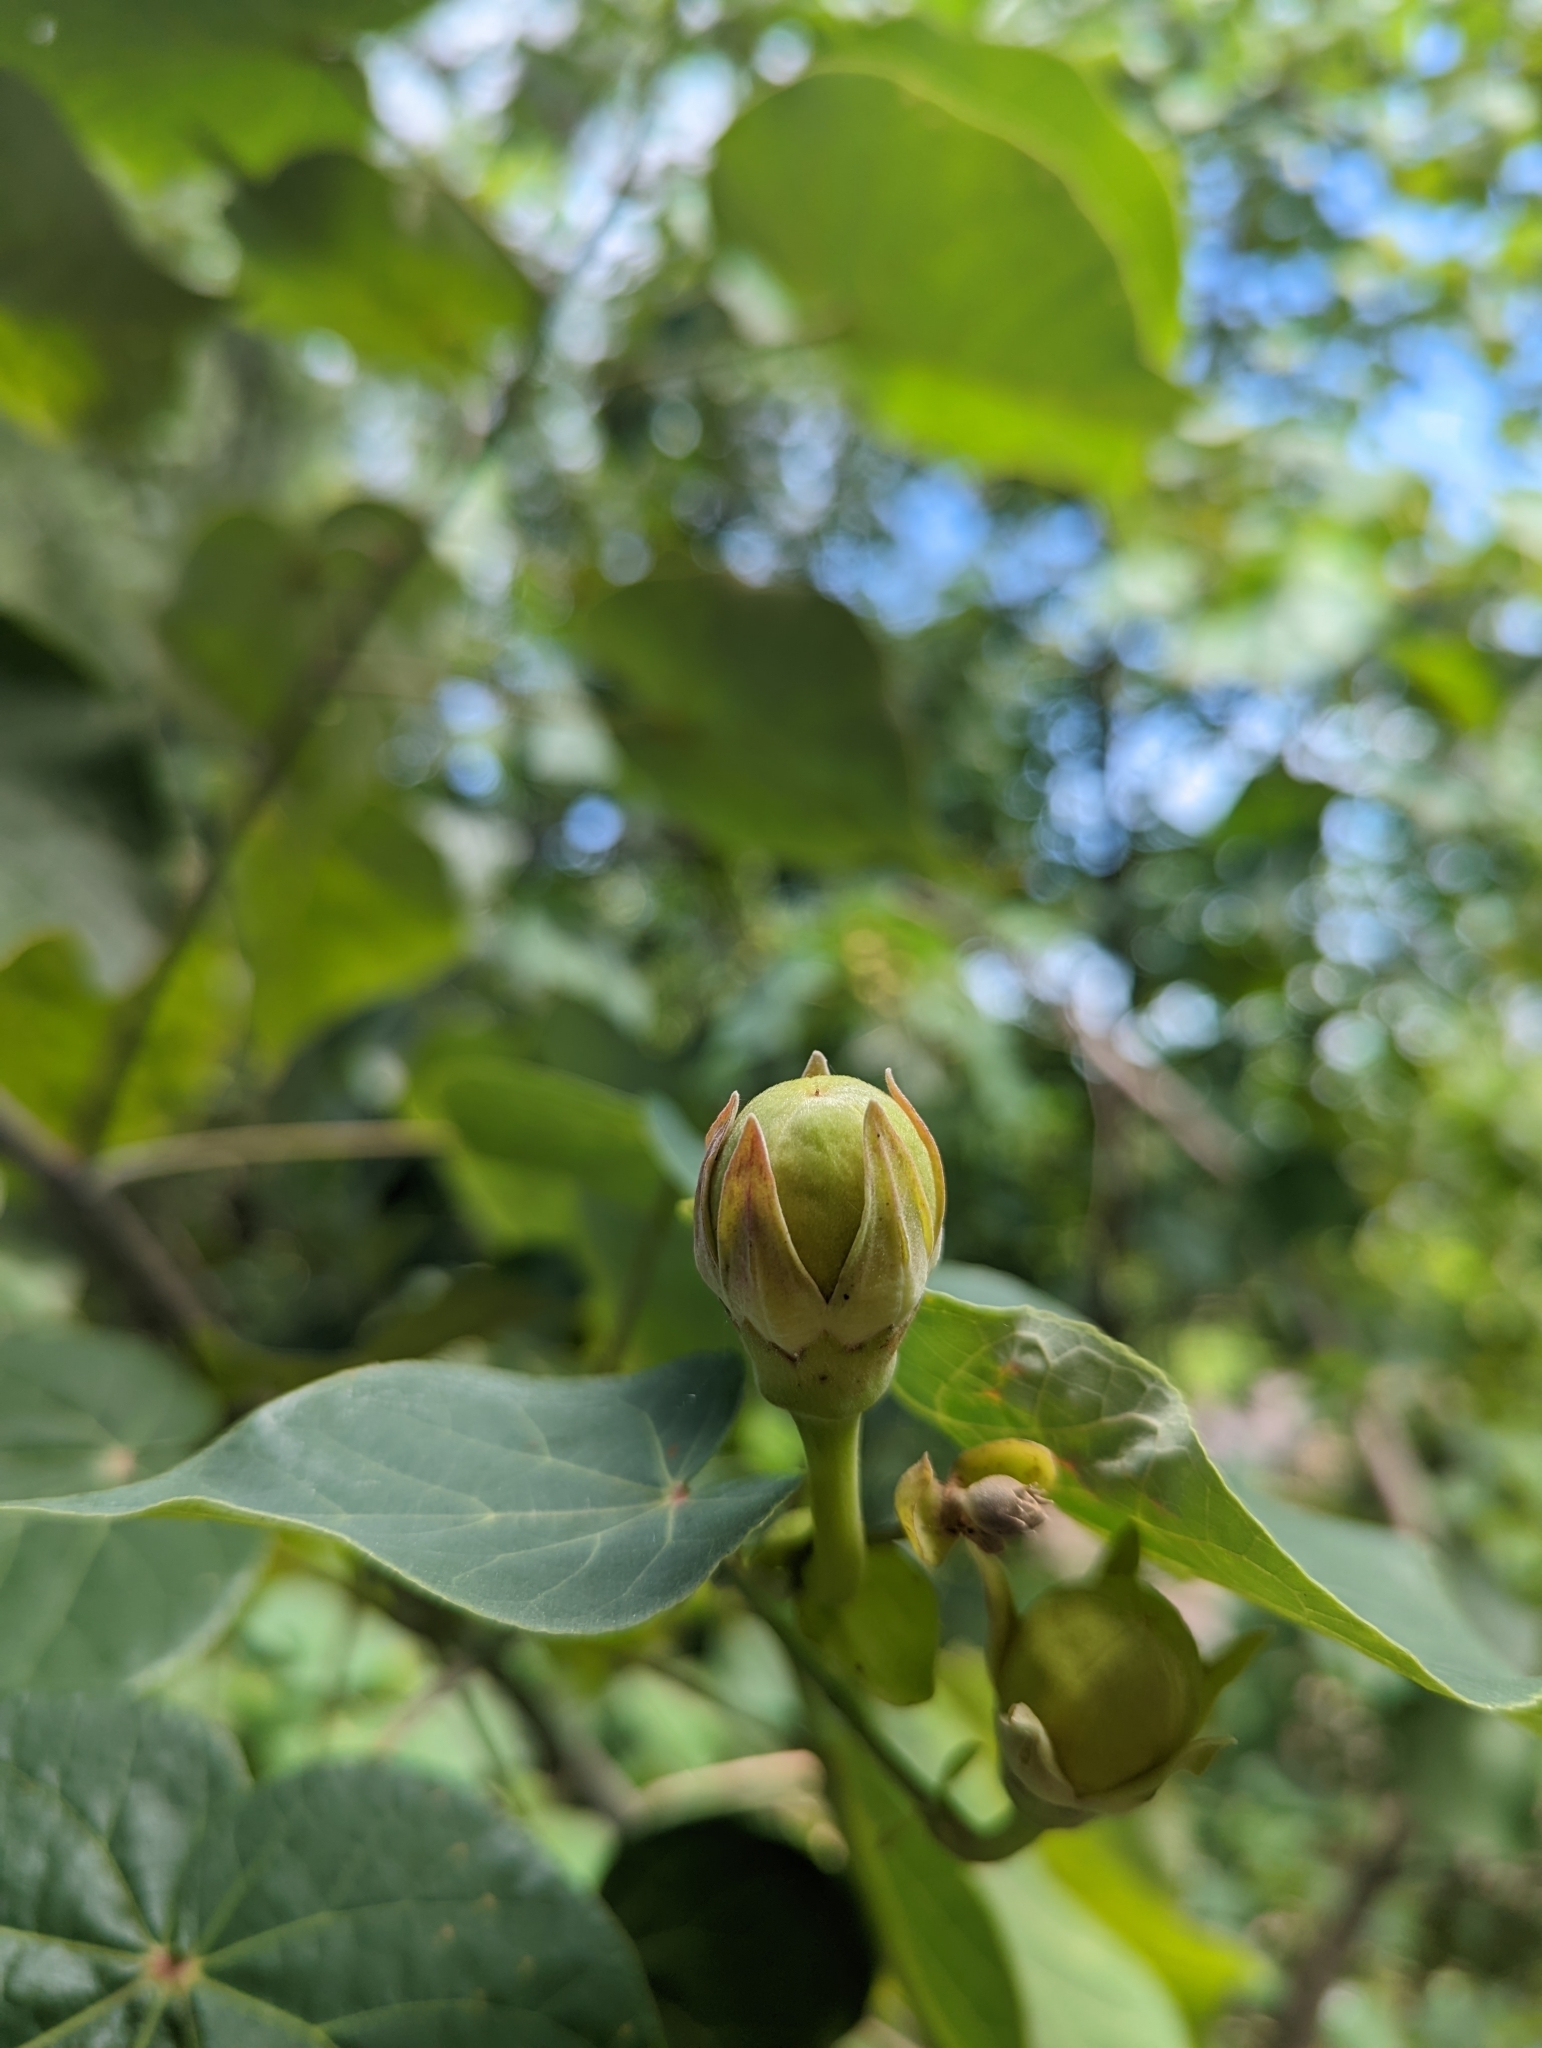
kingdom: Plantae
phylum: Tracheophyta
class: Magnoliopsida
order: Malvales
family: Malvaceae
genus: Talipariti
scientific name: Talipariti tiliaceum
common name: Sea hibiscus
